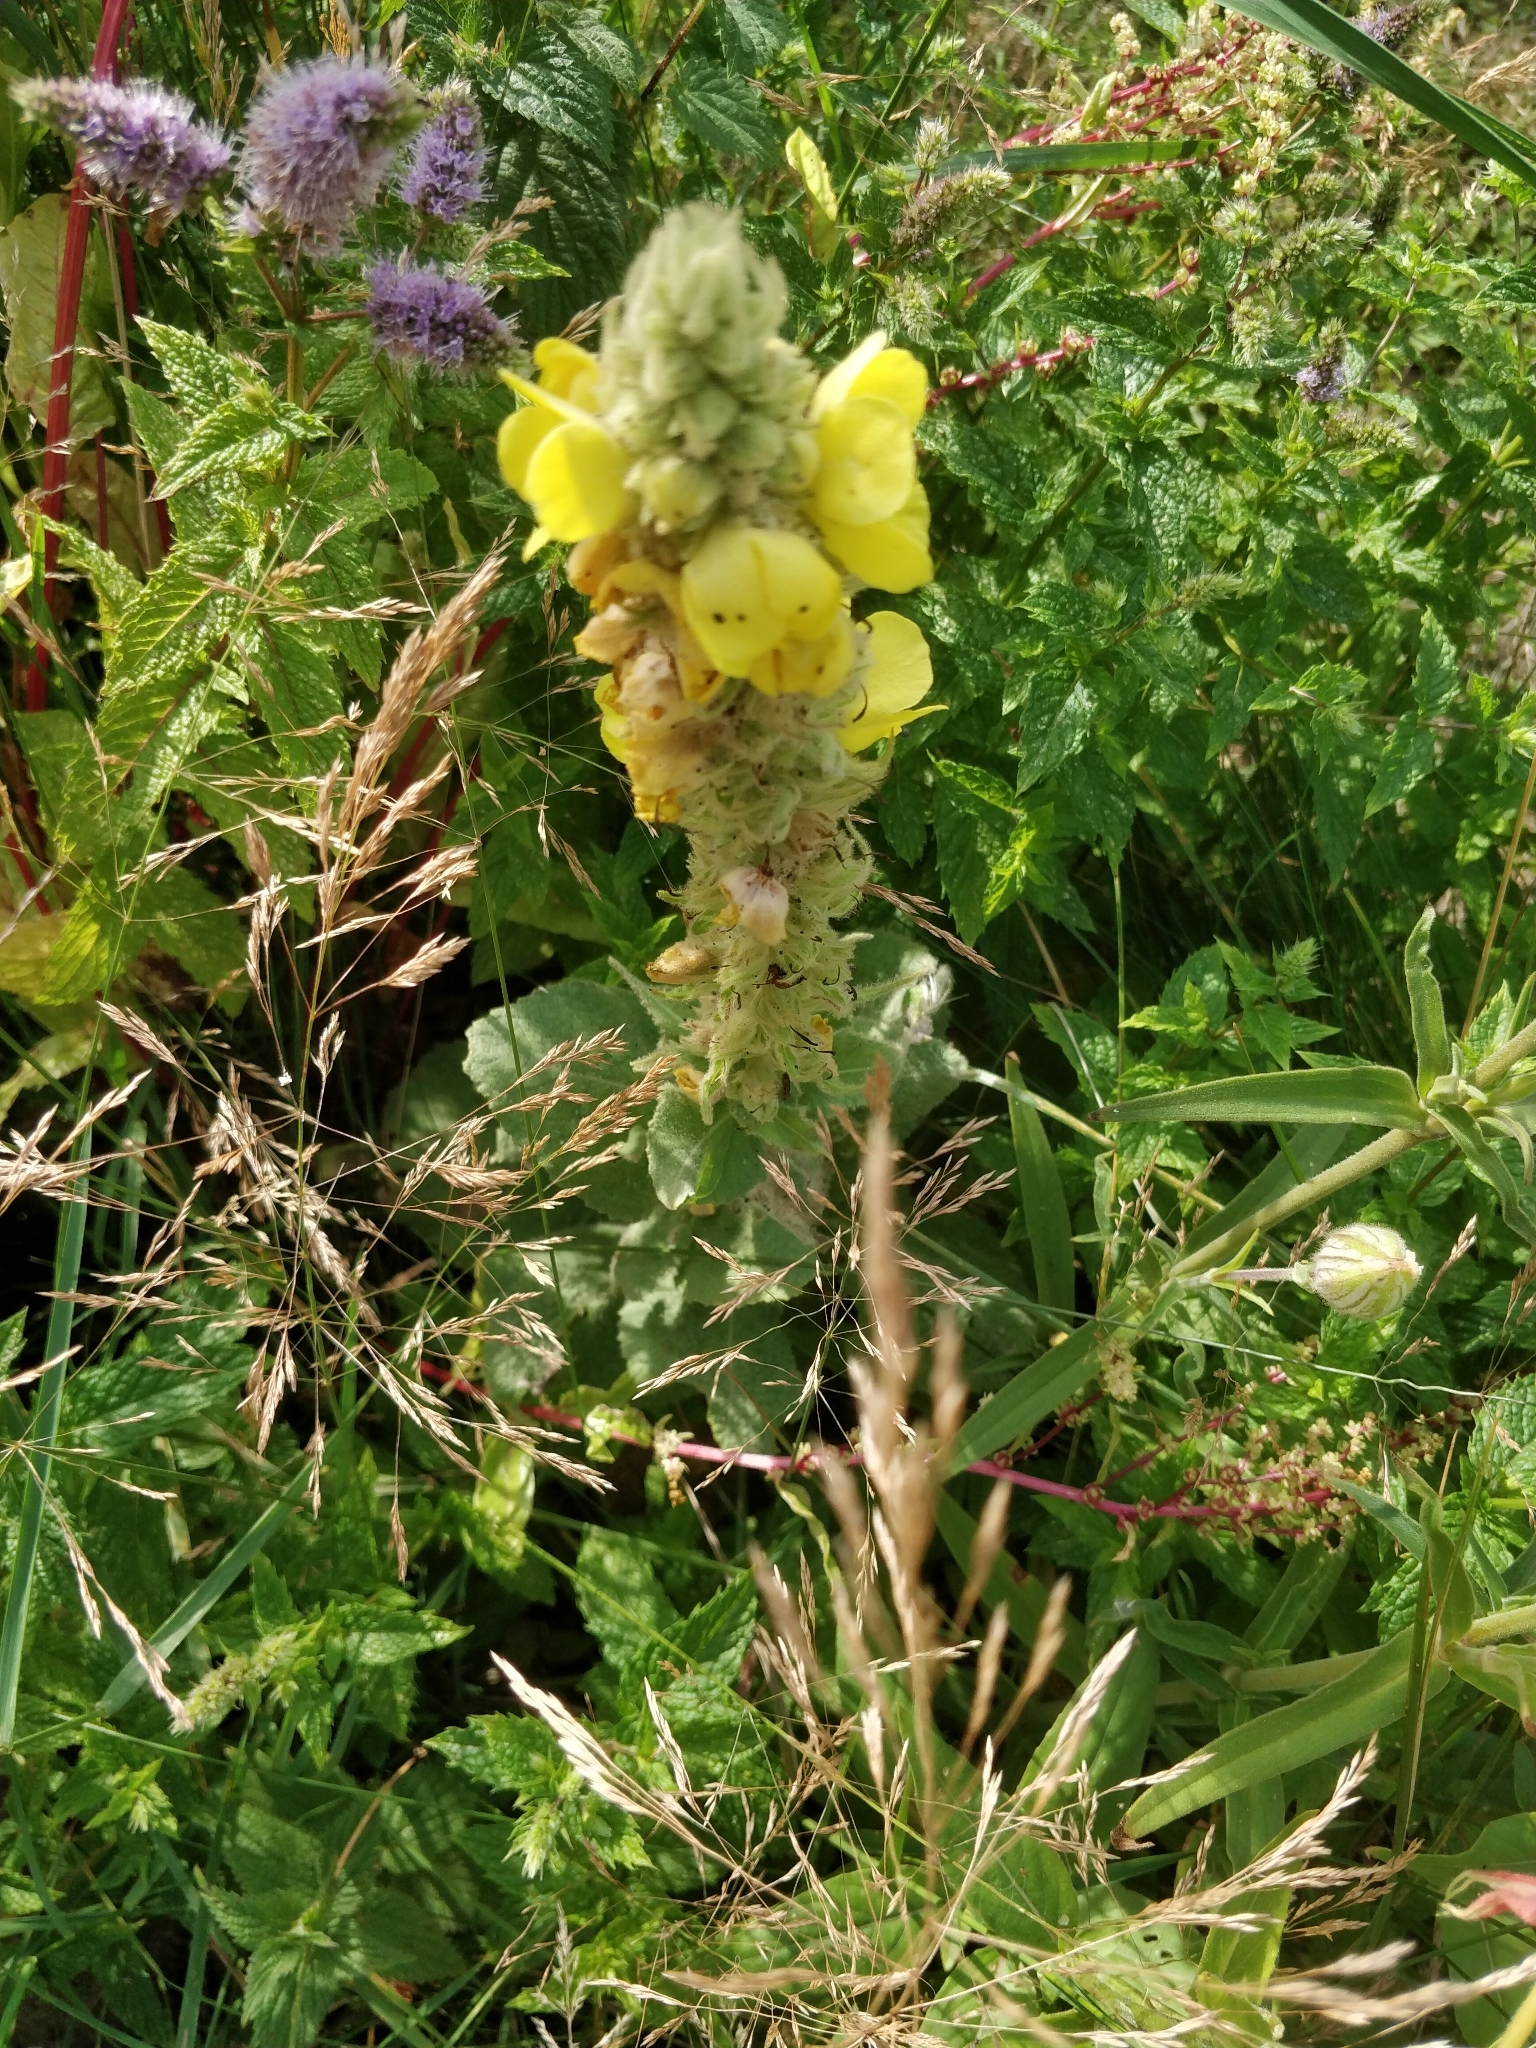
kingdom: Plantae
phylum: Tracheophyta
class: Magnoliopsida
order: Lamiales
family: Scrophulariaceae
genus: Verbascum
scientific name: Verbascum thapsus
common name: Common mullein
